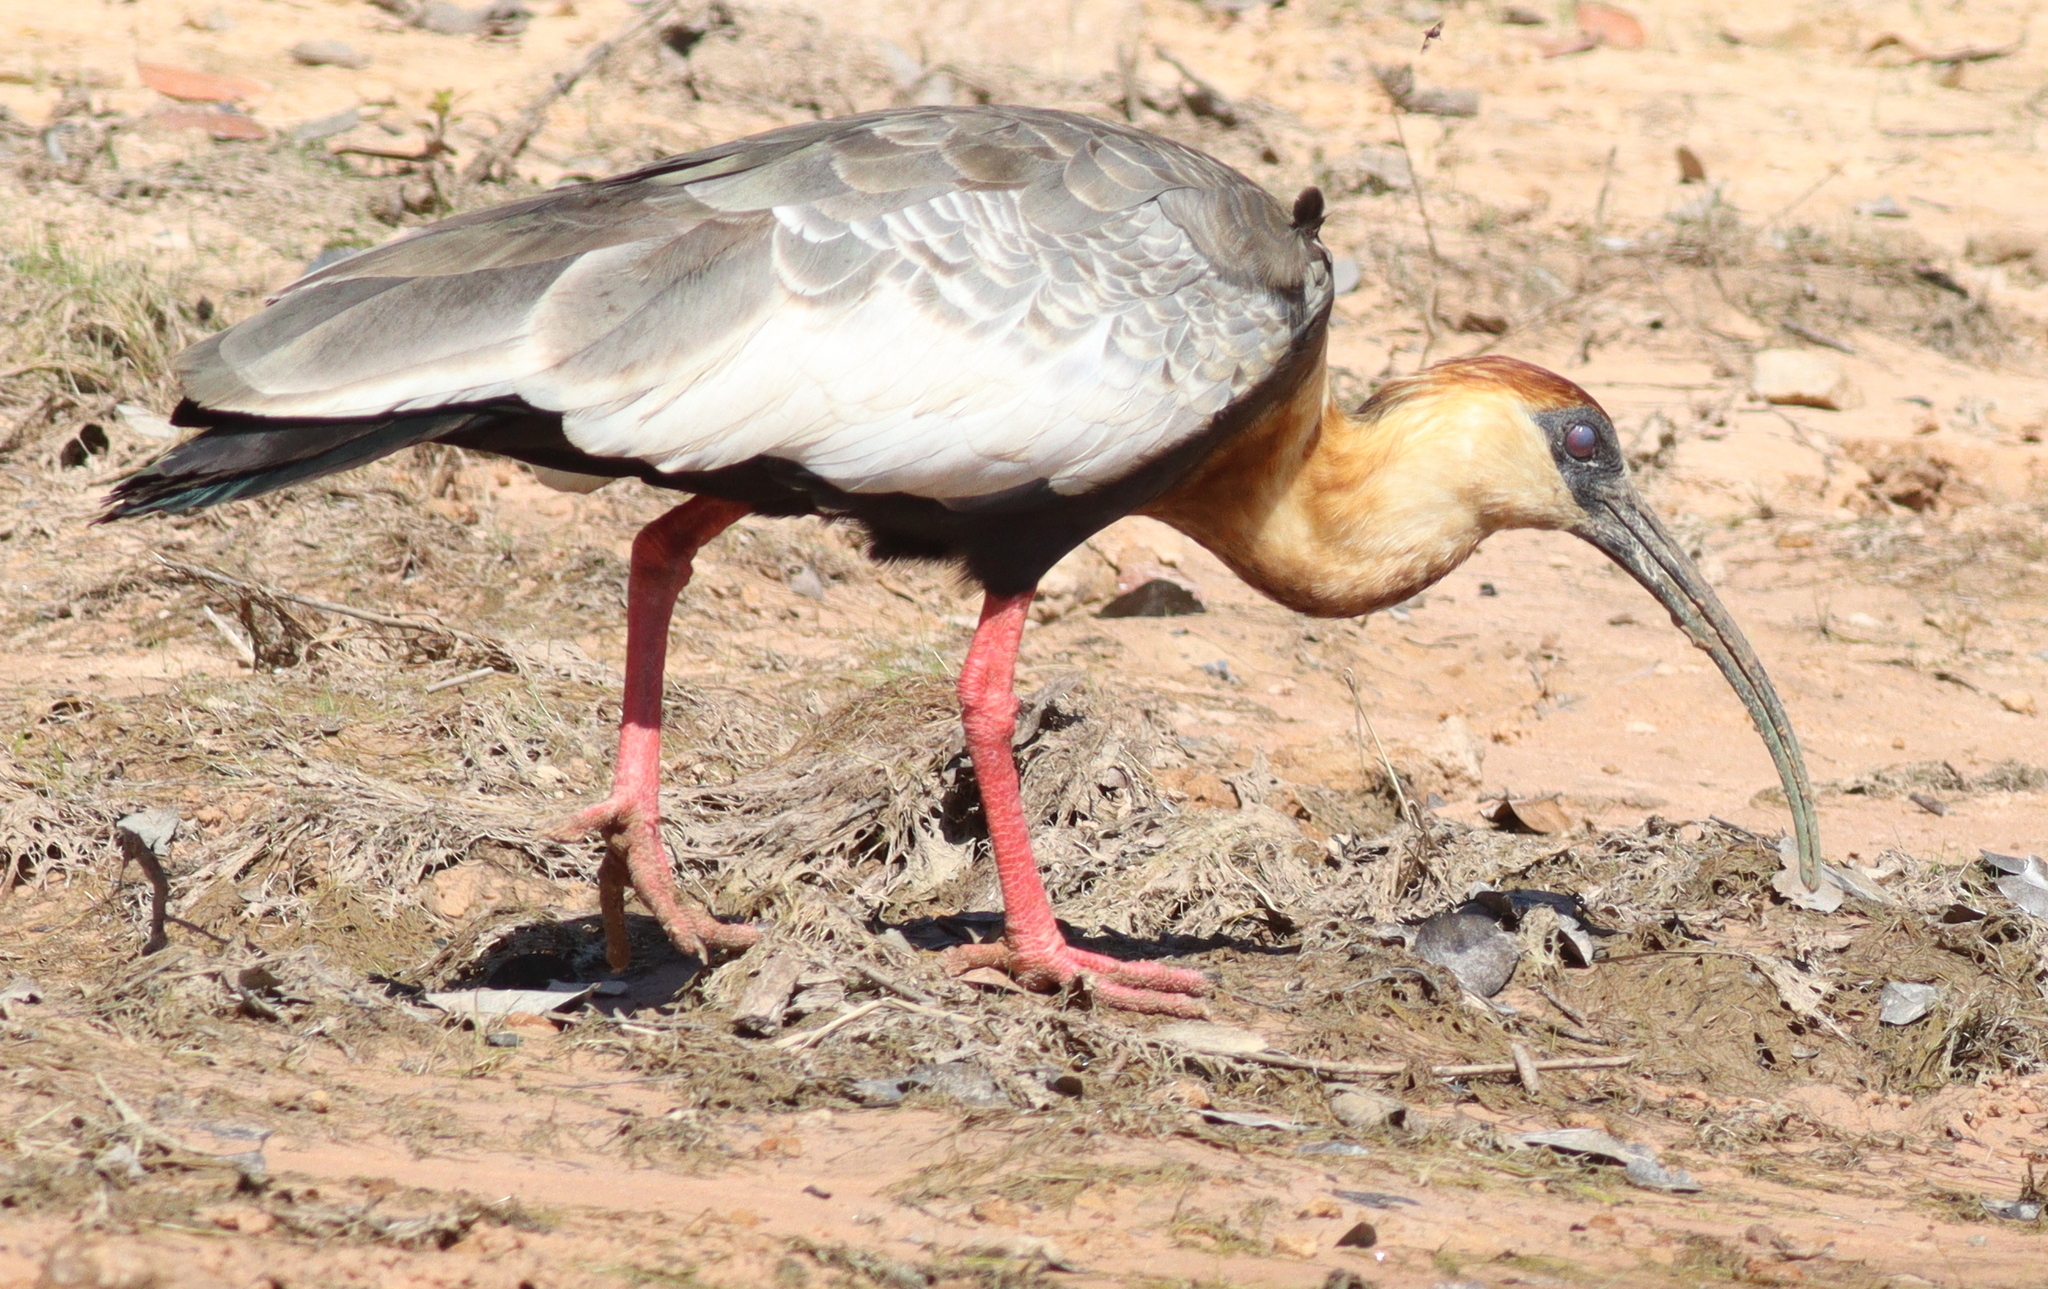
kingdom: Animalia
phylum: Chordata
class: Aves
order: Pelecaniformes
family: Threskiornithidae
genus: Theristicus
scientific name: Theristicus caudatus
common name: Buff-necked ibis
